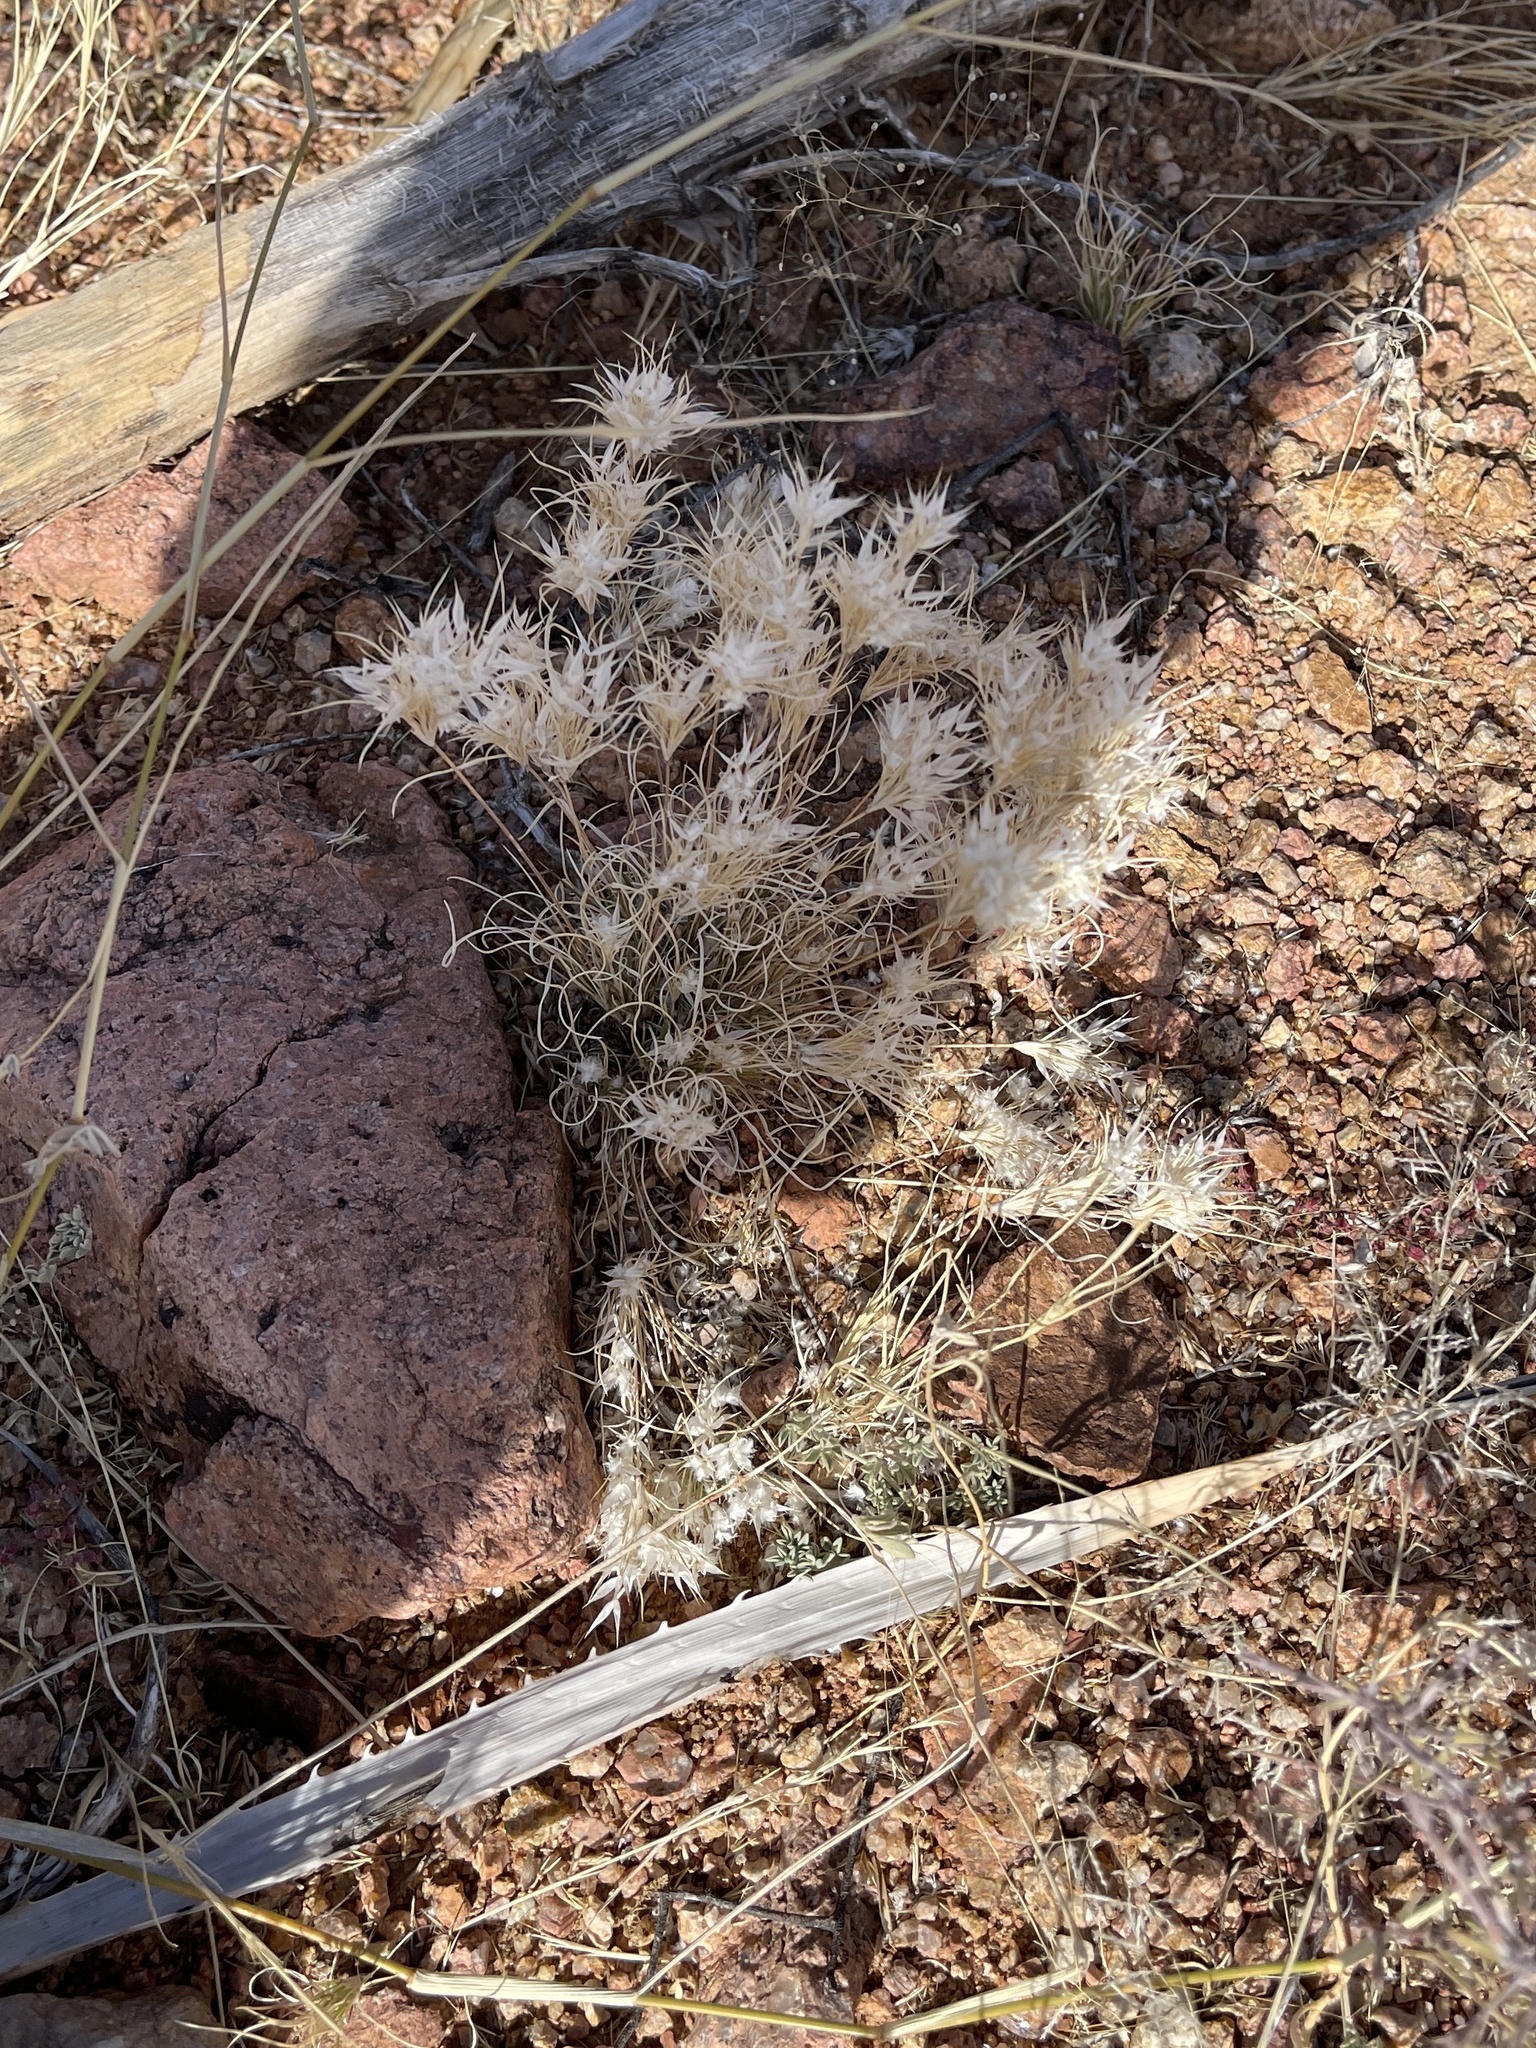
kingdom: Plantae
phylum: Tracheophyta
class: Liliopsida
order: Poales
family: Poaceae
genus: Dasyochloa
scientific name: Dasyochloa pulchella
